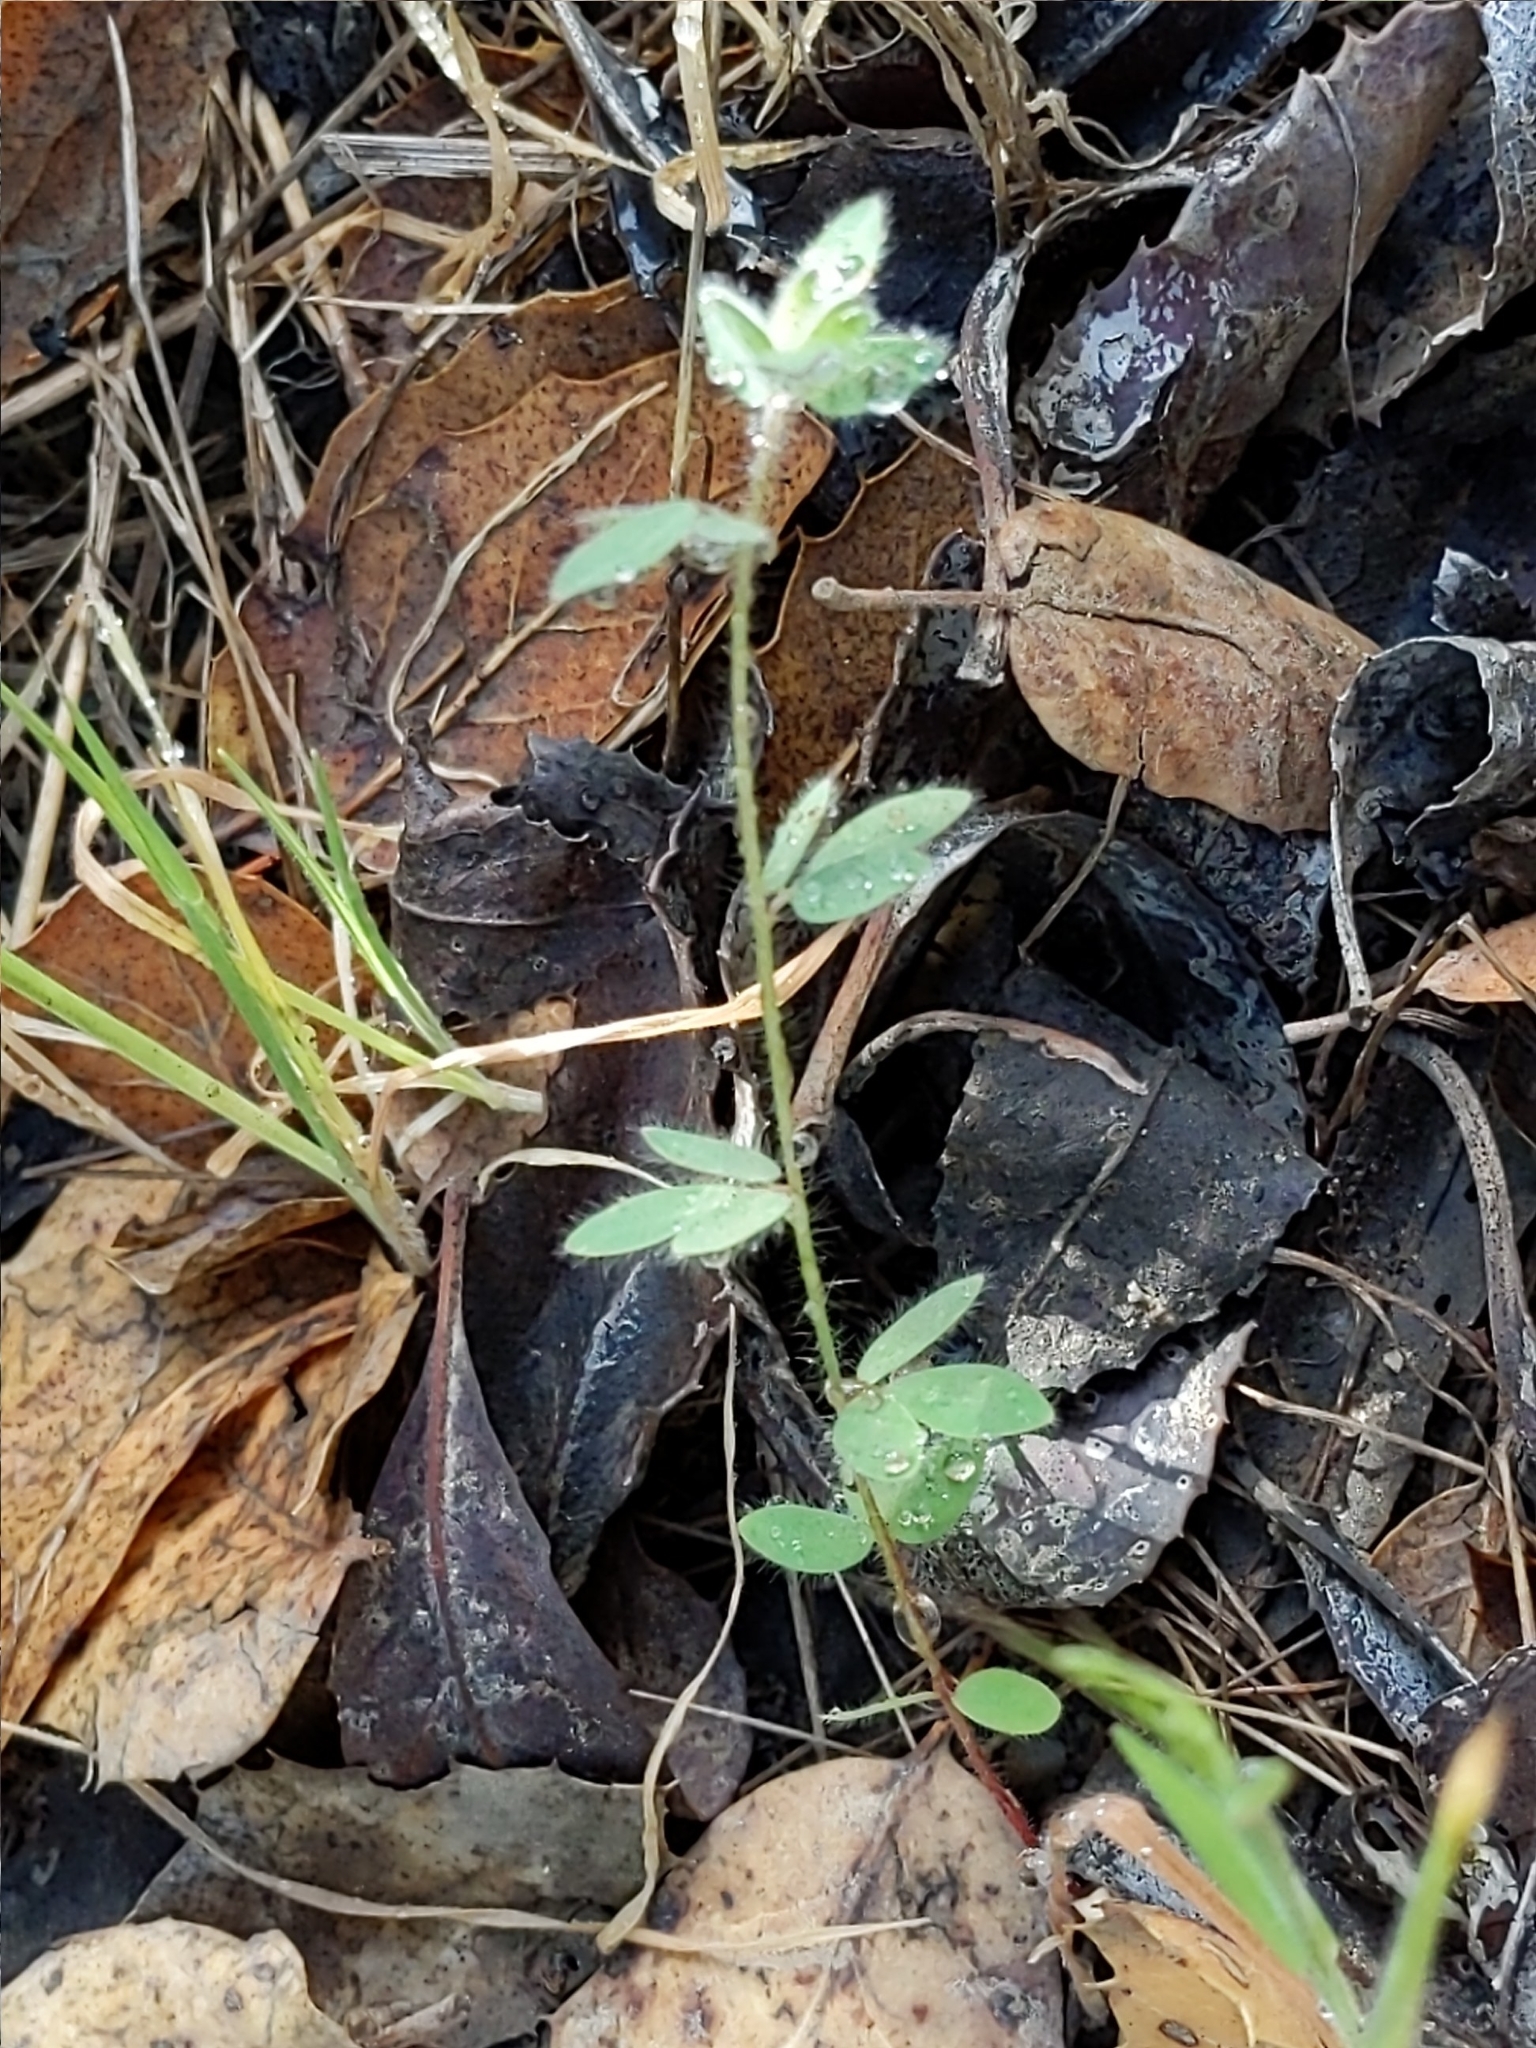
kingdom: Plantae
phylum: Tracheophyta
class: Magnoliopsida
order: Fabales
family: Fabaceae
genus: Acmispon
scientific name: Acmispon americanus
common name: American bird's-foot trefoil
